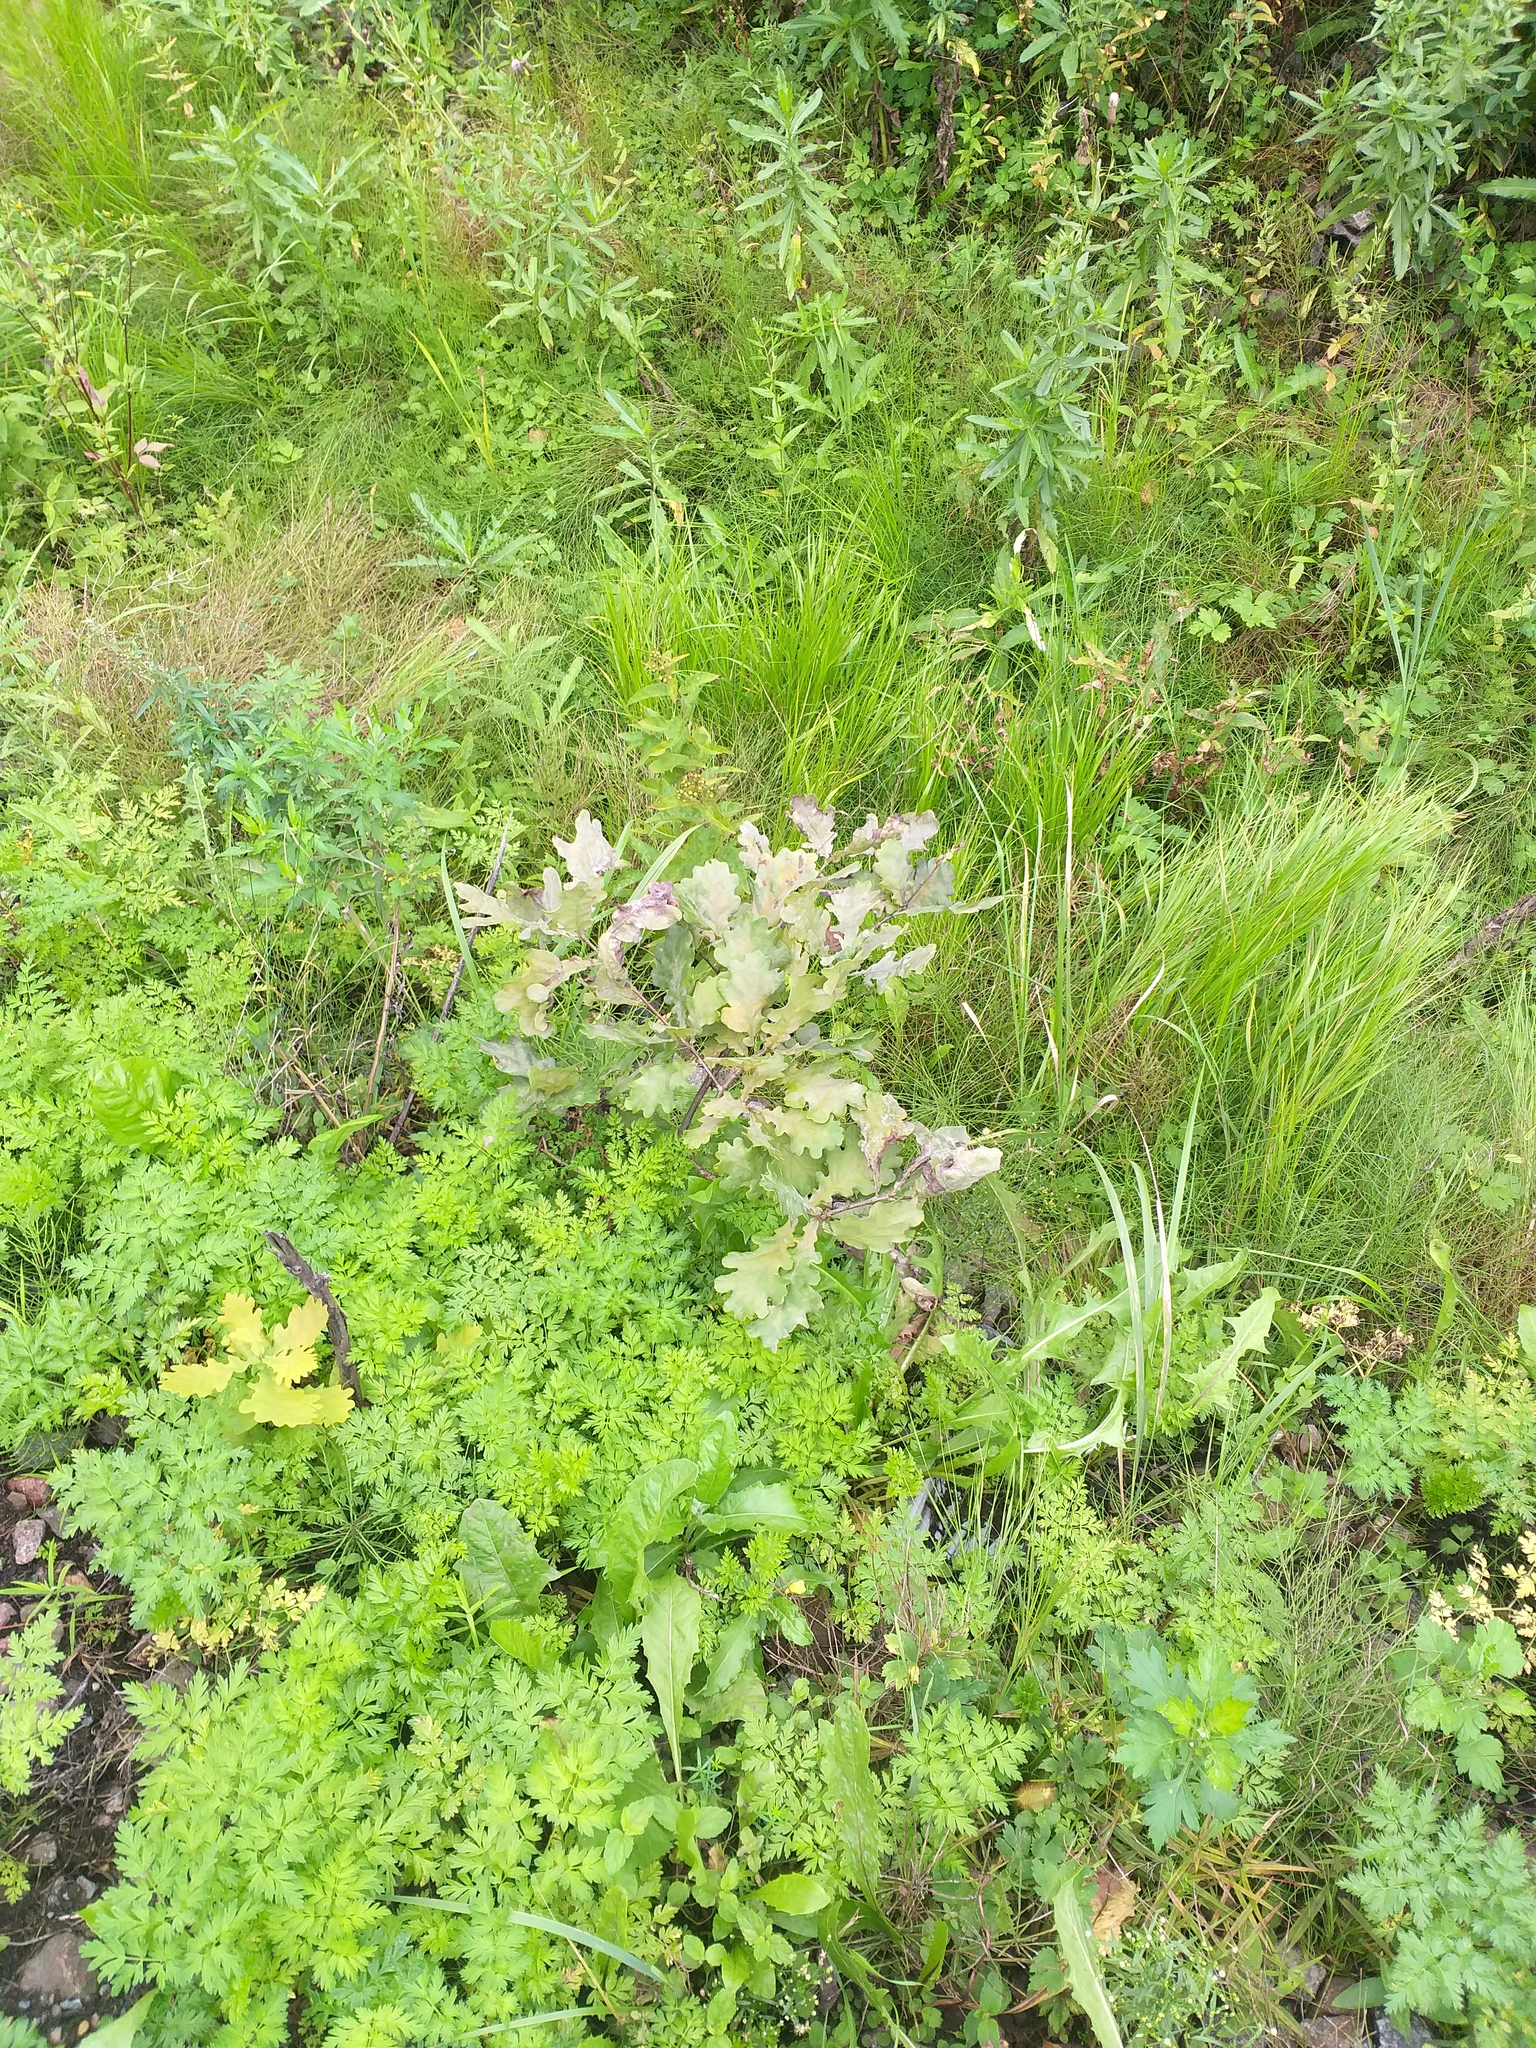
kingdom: Plantae
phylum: Tracheophyta
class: Magnoliopsida
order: Fagales
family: Fagaceae
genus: Quercus
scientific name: Quercus robur
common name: Pedunculate oak
